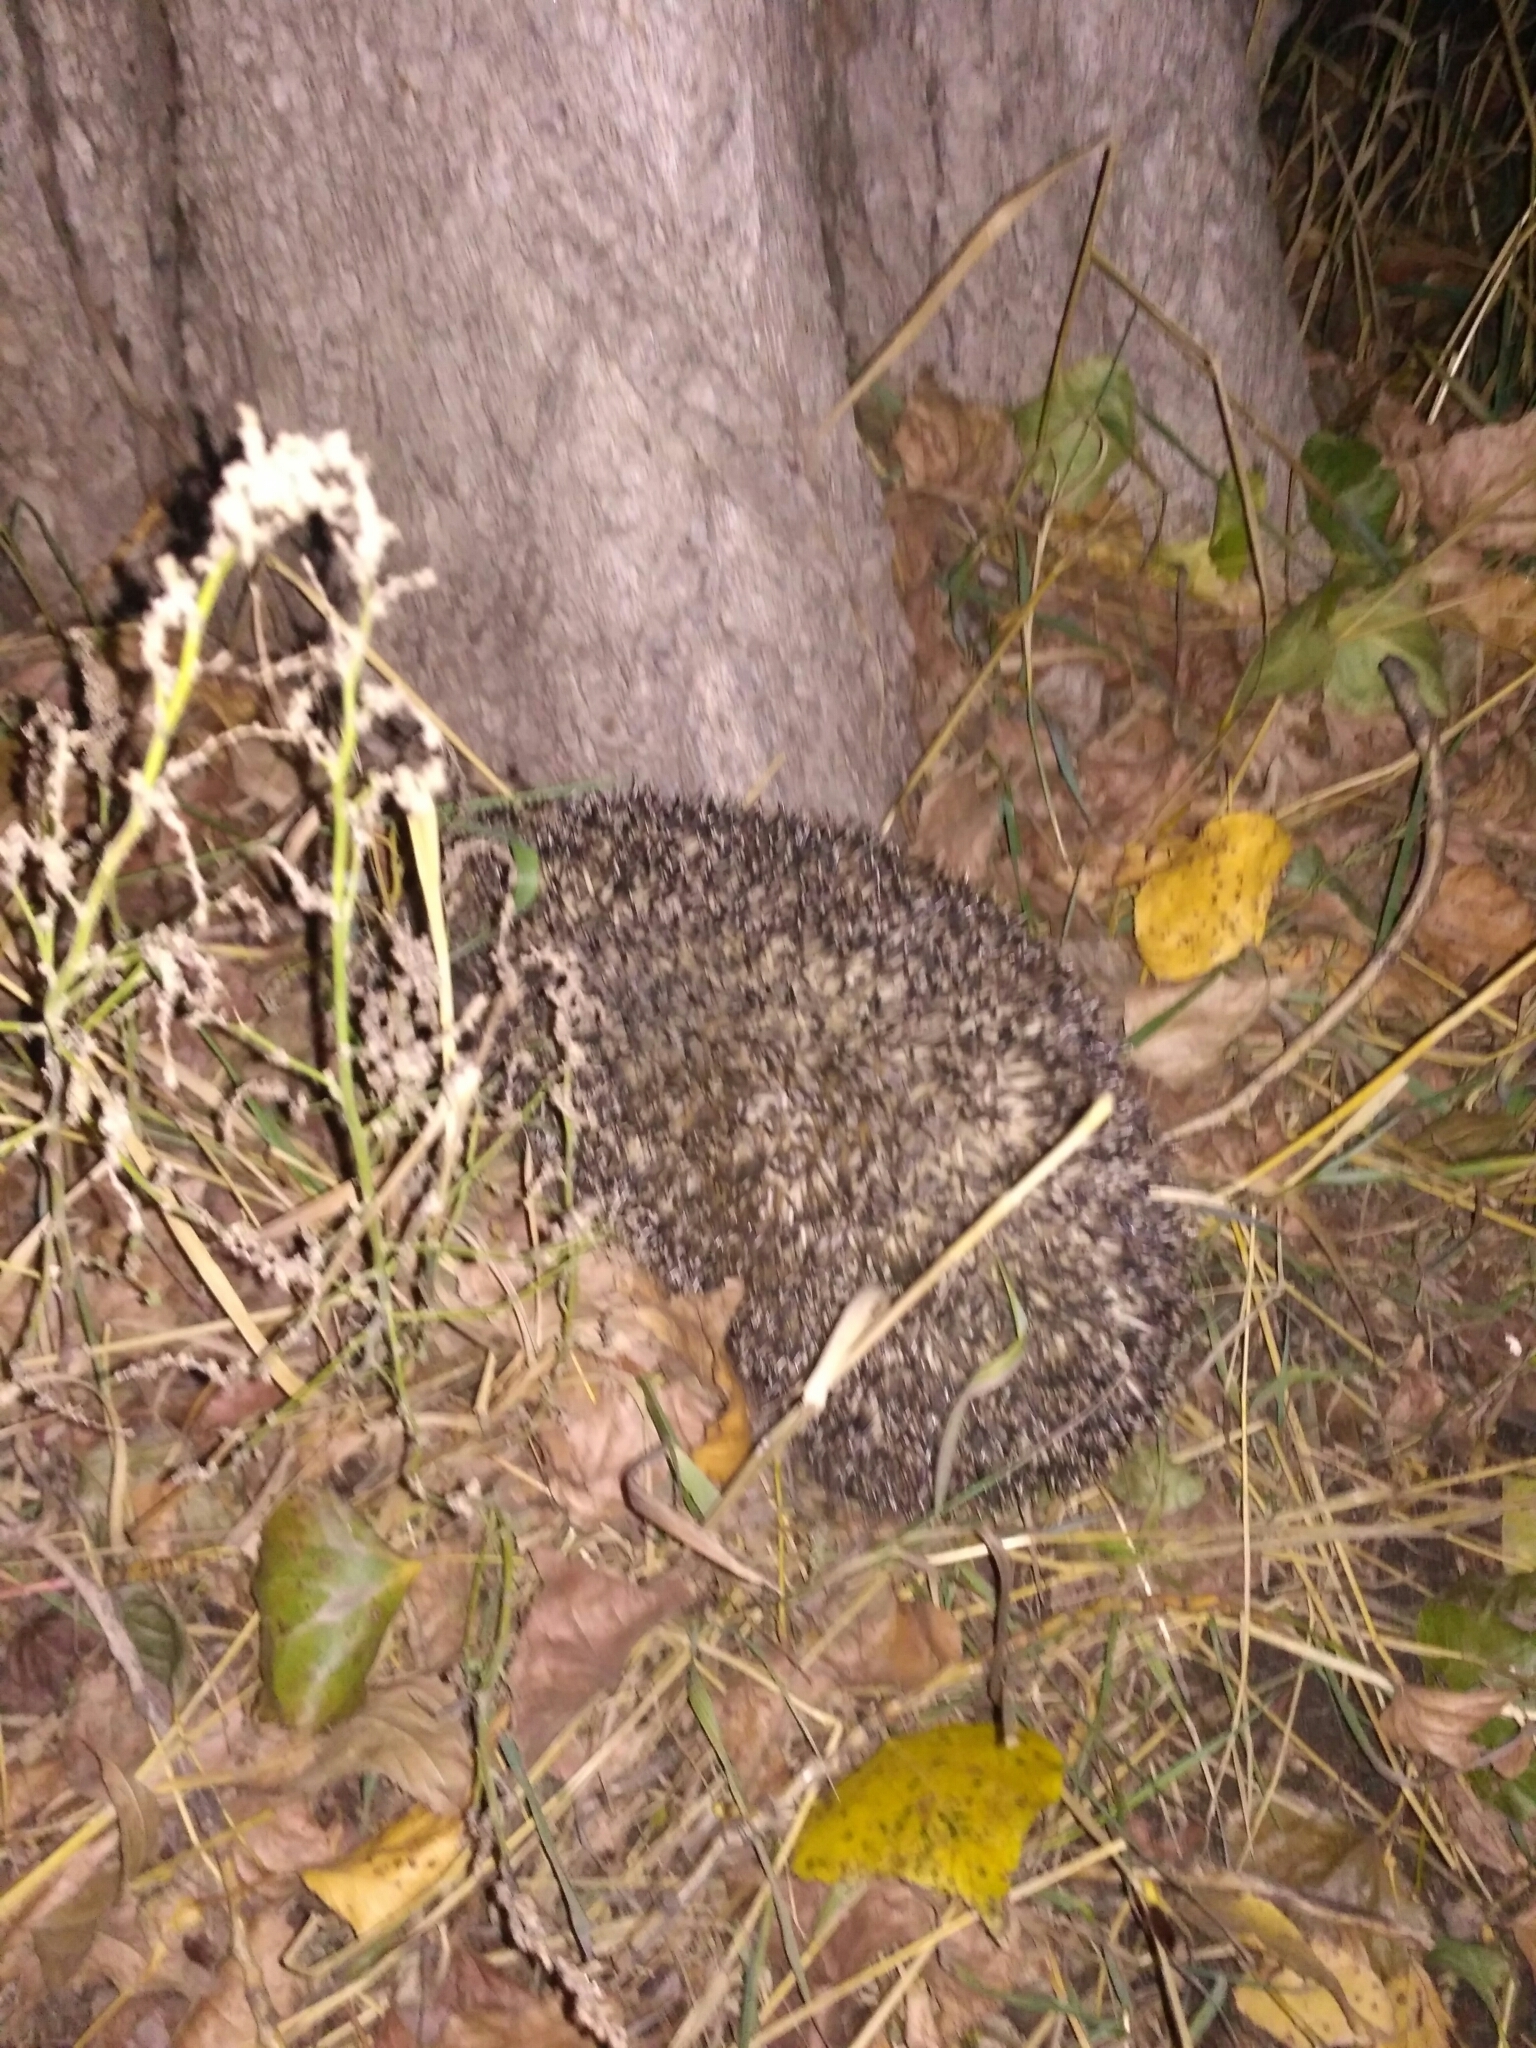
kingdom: Animalia
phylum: Chordata
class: Mammalia
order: Erinaceomorpha
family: Erinaceidae
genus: Erinaceus
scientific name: Erinaceus roumanicus
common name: Northern white-breasted hedgehog
